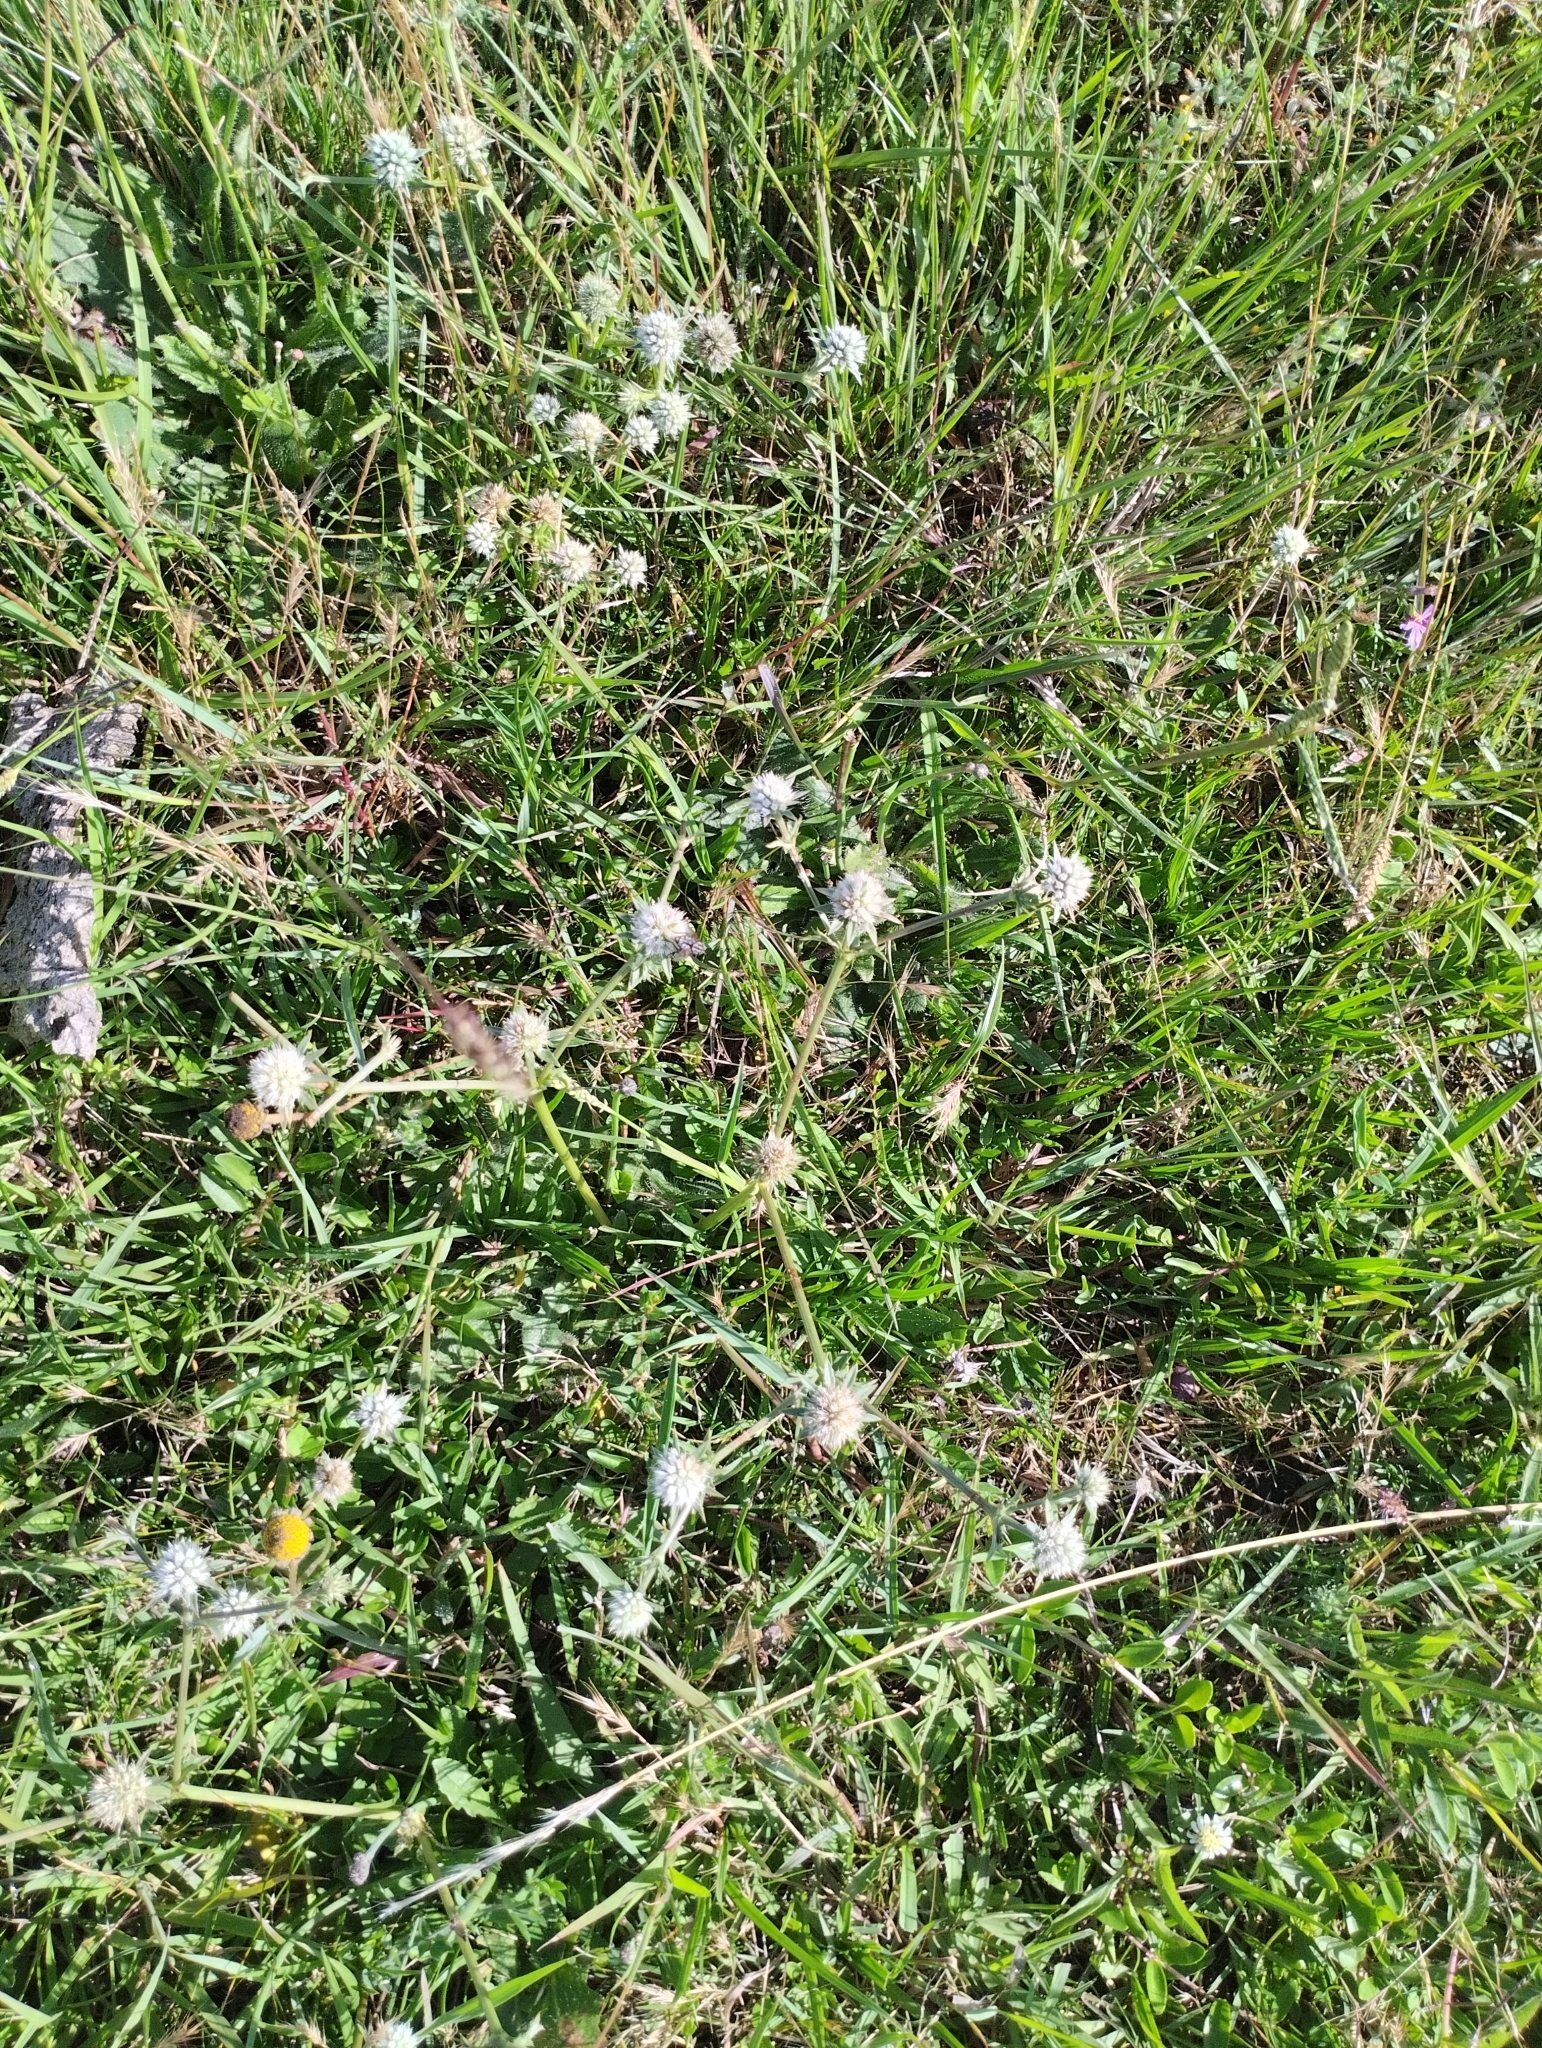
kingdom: Plantae
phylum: Tracheophyta
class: Magnoliopsida
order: Apiales
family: Apiaceae
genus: Eryngium
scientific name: Eryngium nudicaule
